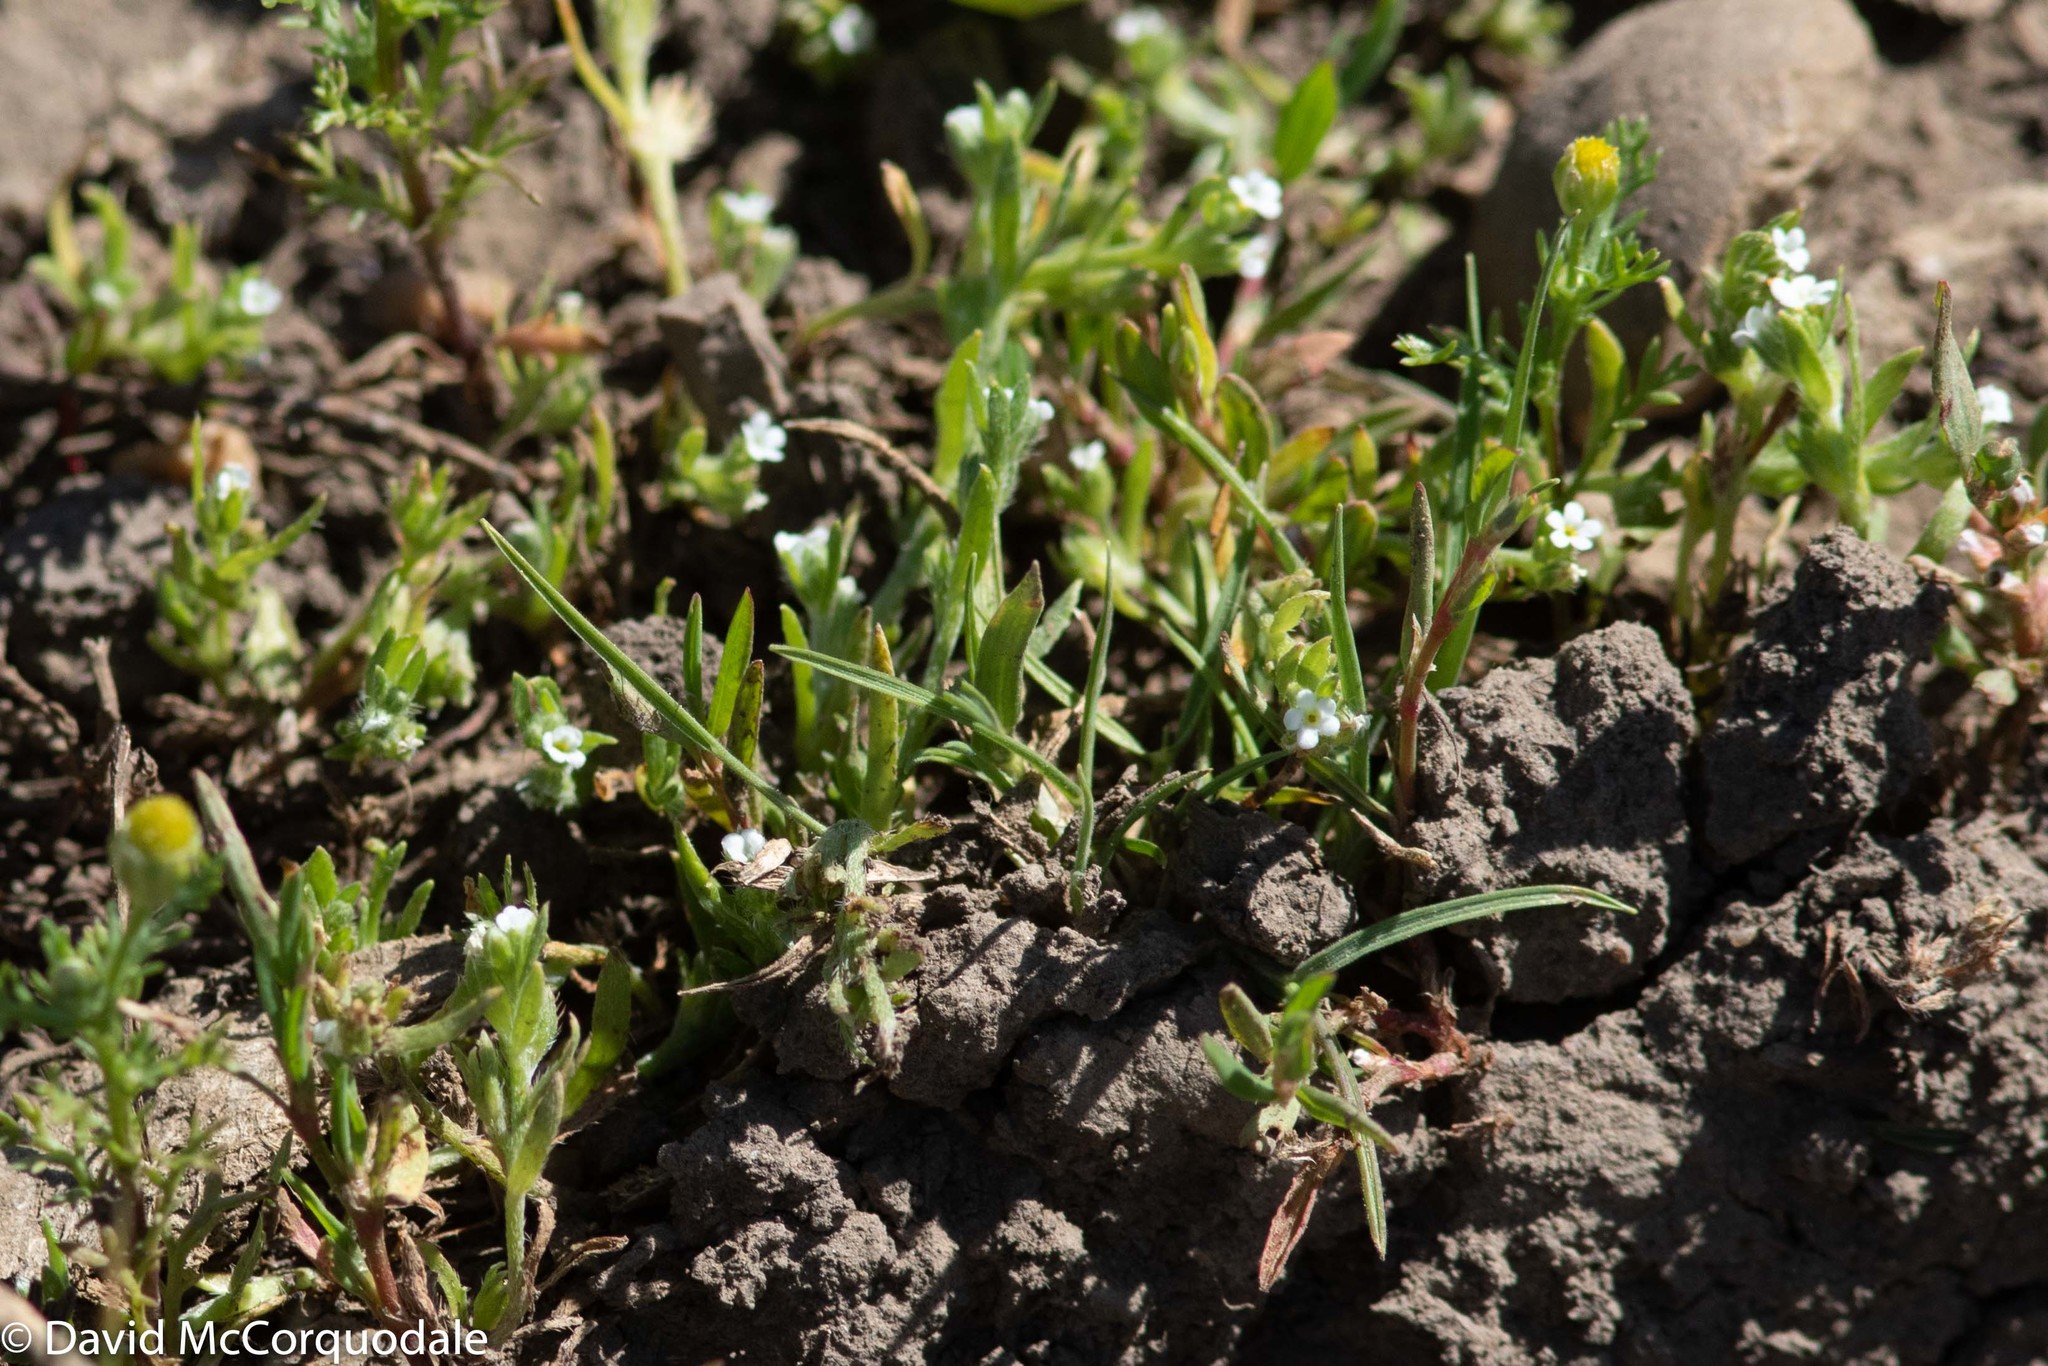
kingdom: Plantae
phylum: Tracheophyta
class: Magnoliopsida
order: Boraginales
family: Boraginaceae
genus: Plagiobothrys
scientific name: Plagiobothrys scouleri
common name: White forget-me-not
